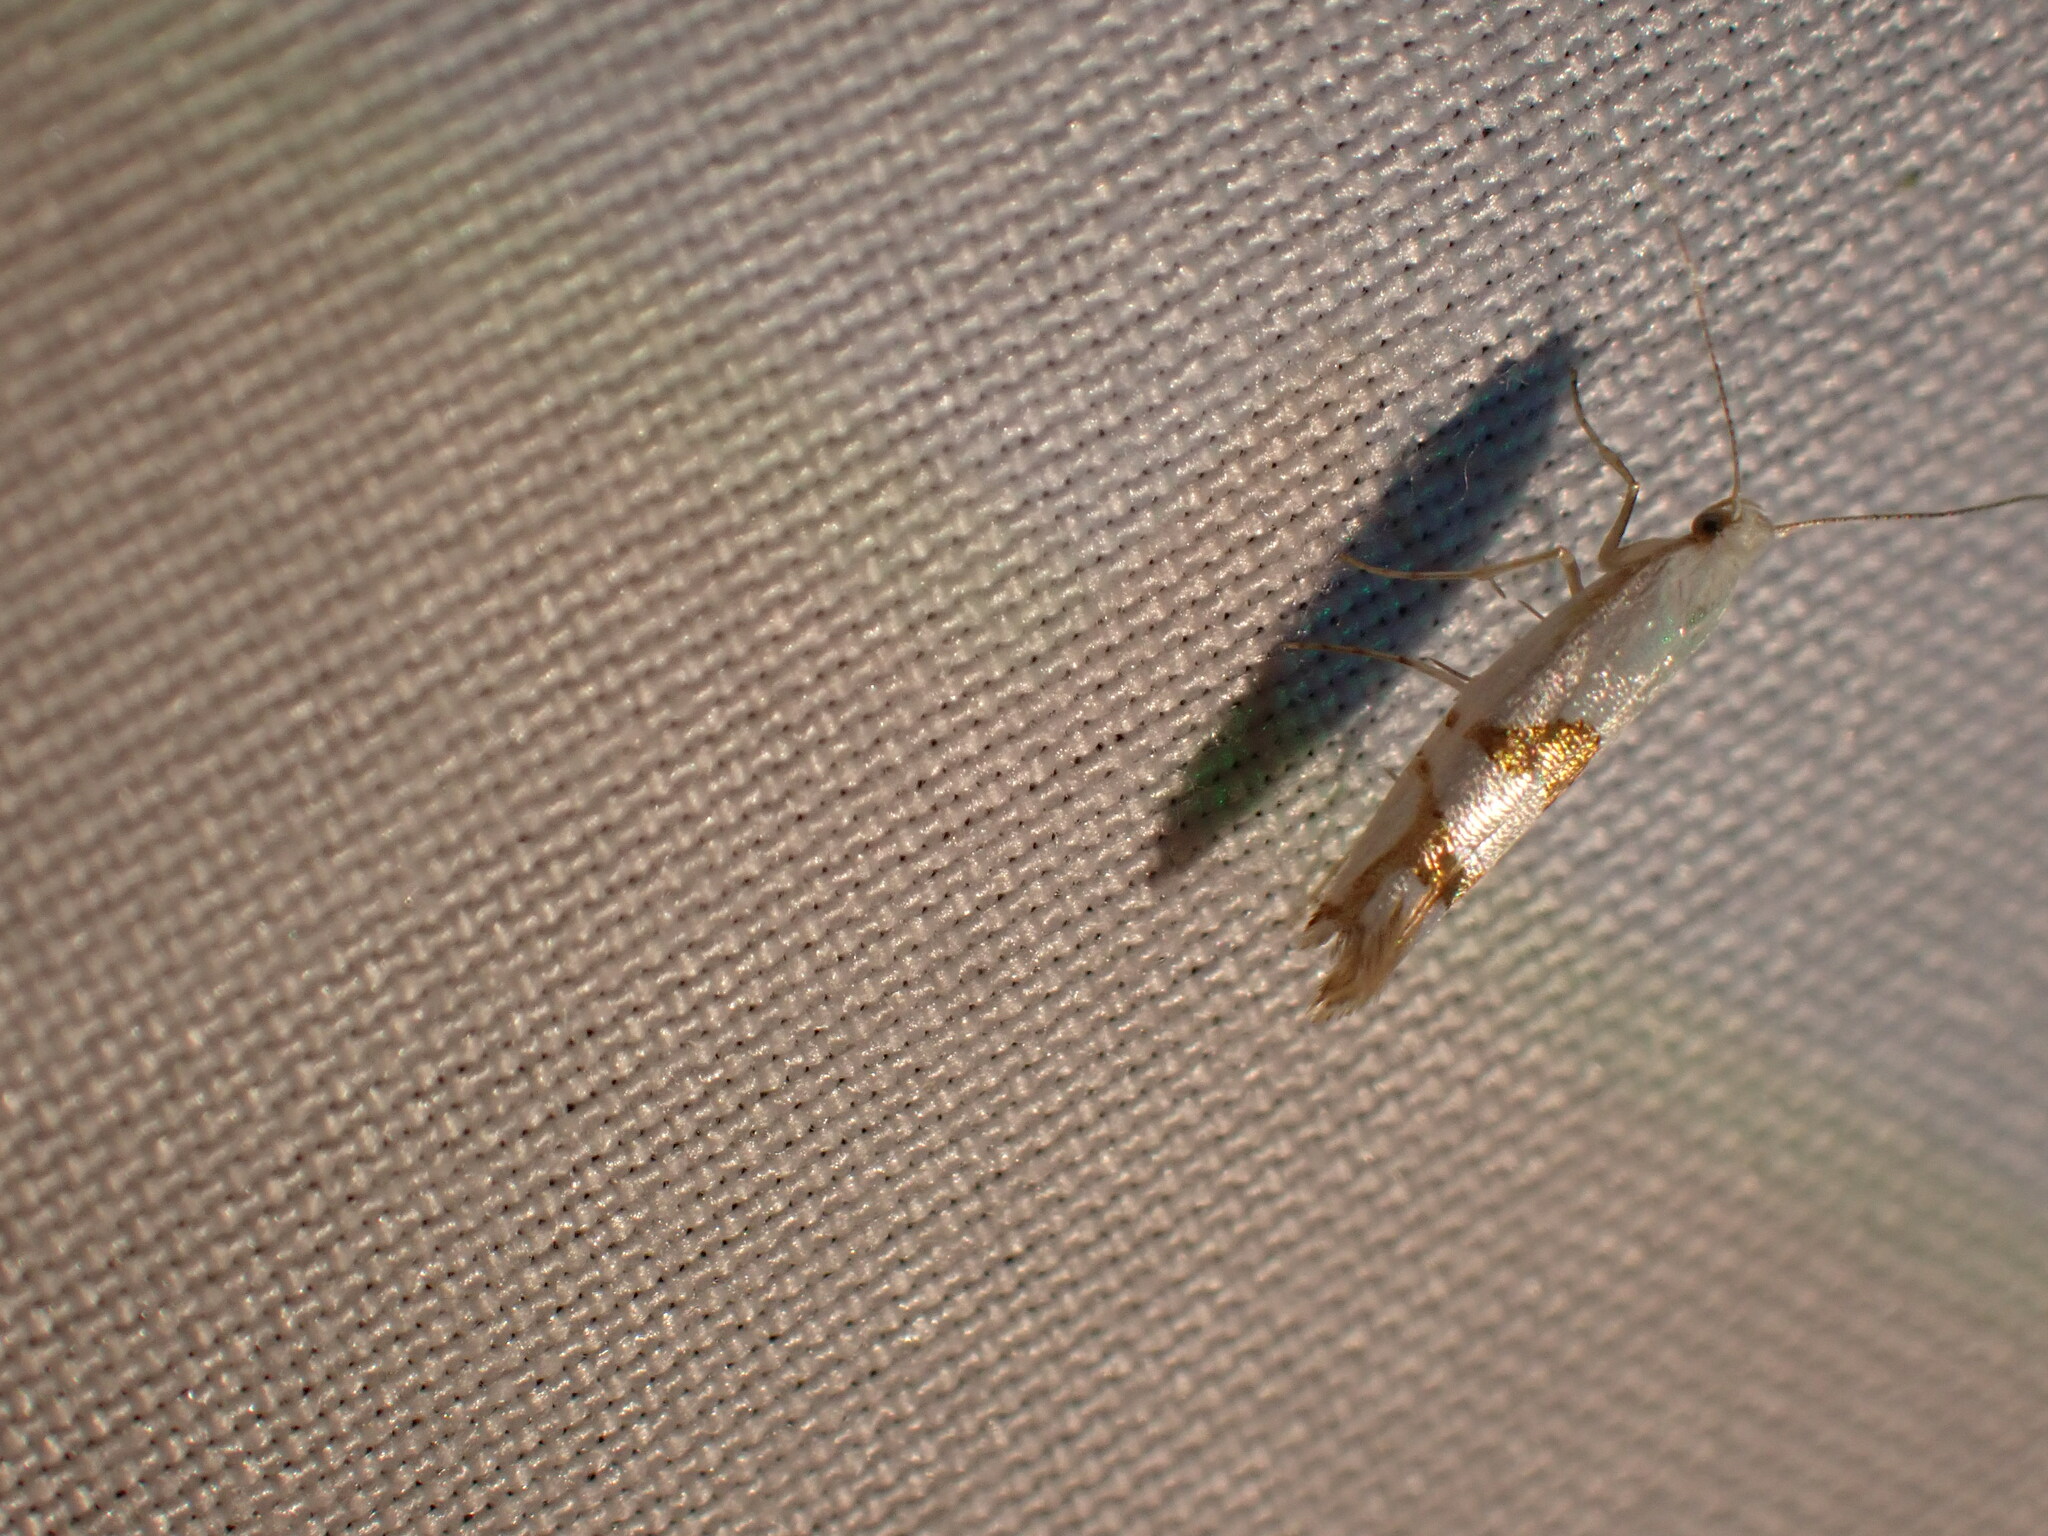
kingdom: Animalia
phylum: Arthropoda
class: Insecta
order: Lepidoptera
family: Argyresthiidae
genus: Argyresthia
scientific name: Argyresthia oreasella
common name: Cherry shoot borer moth
